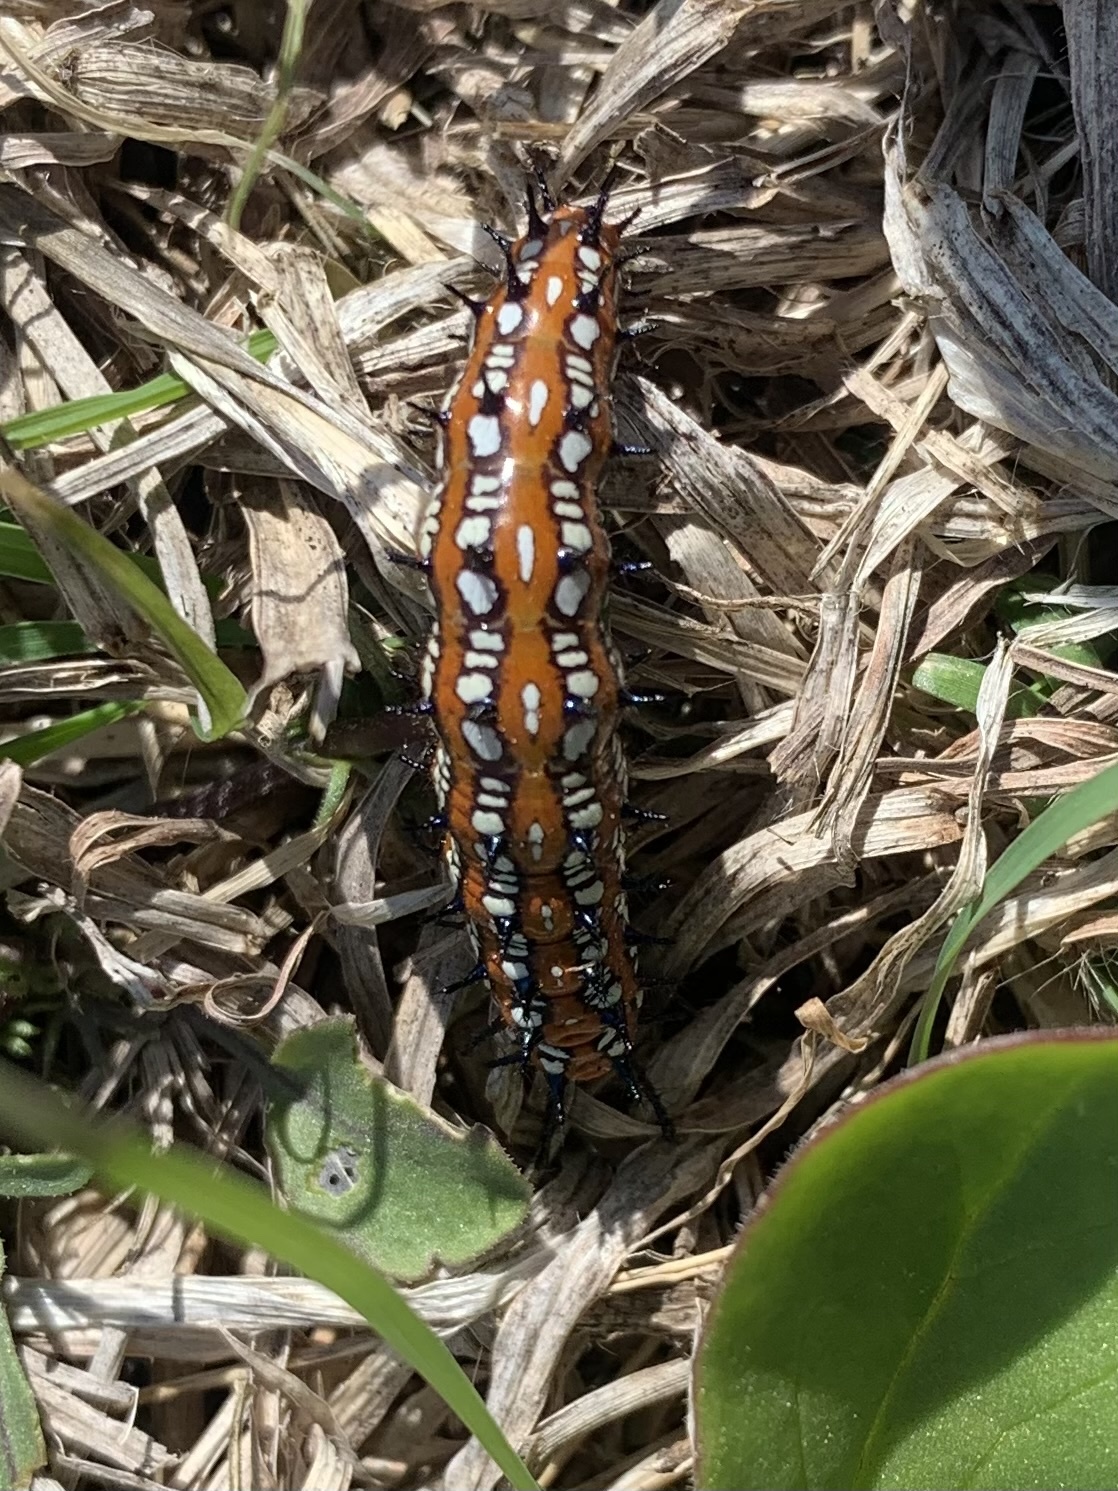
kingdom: Animalia
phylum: Arthropoda
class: Insecta
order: Lepidoptera
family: Nymphalidae
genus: Euptoieta
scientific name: Euptoieta claudia
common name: Variegated fritillary
